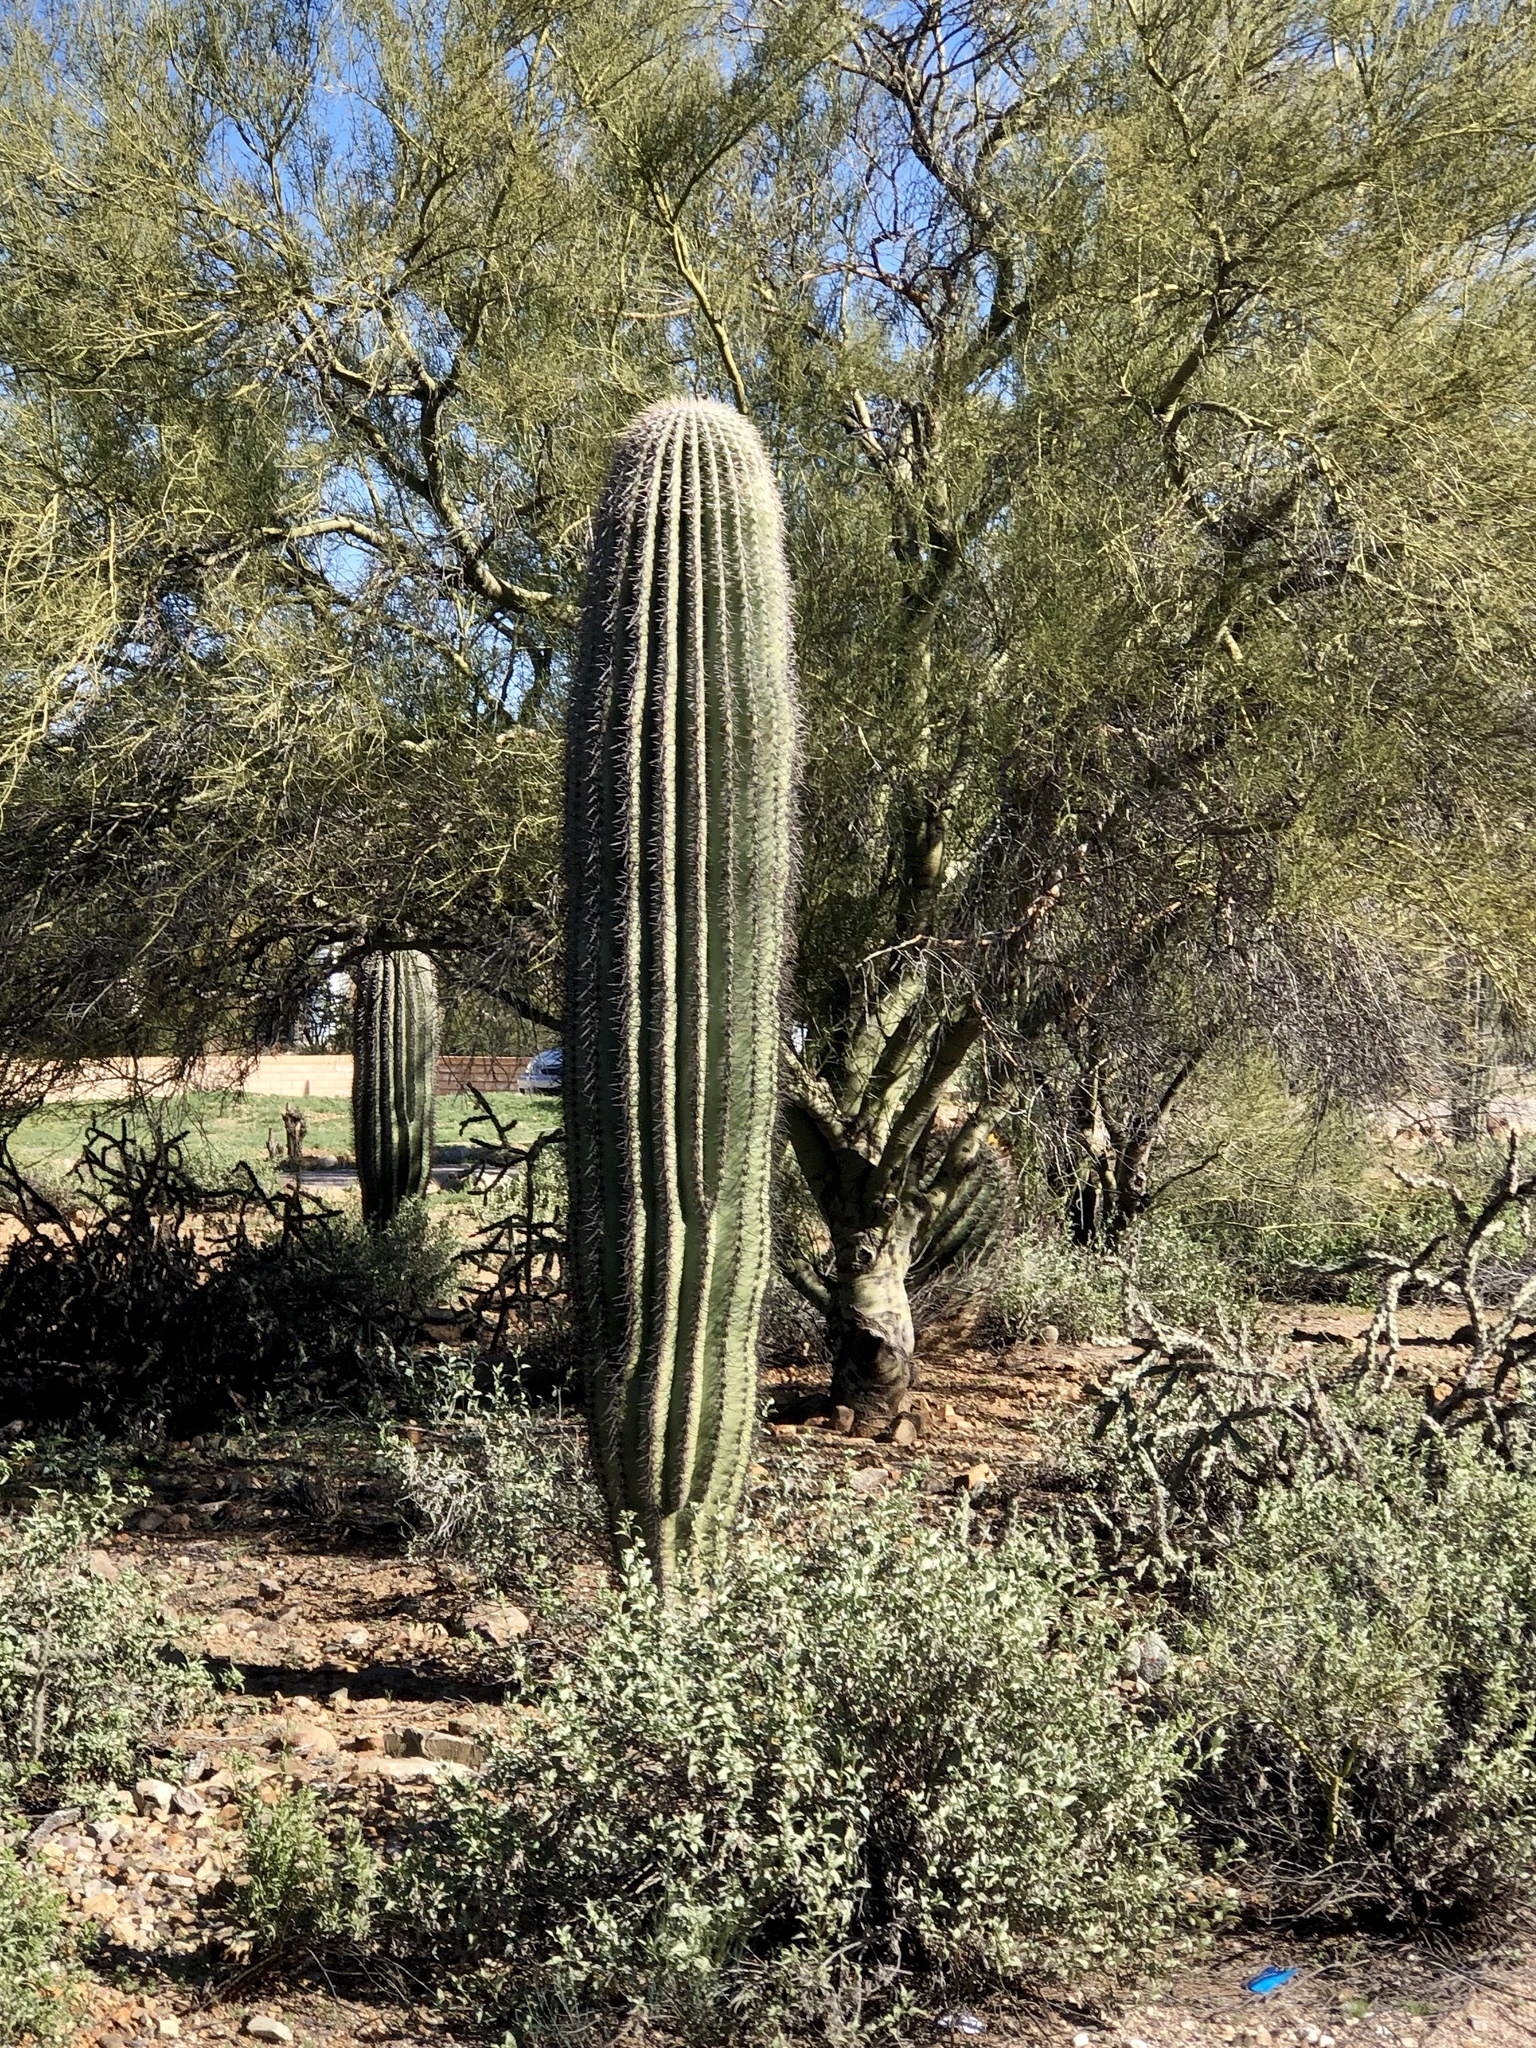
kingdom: Plantae
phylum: Tracheophyta
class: Magnoliopsida
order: Caryophyllales
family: Cactaceae
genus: Carnegiea
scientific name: Carnegiea gigantea
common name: Saguaro
